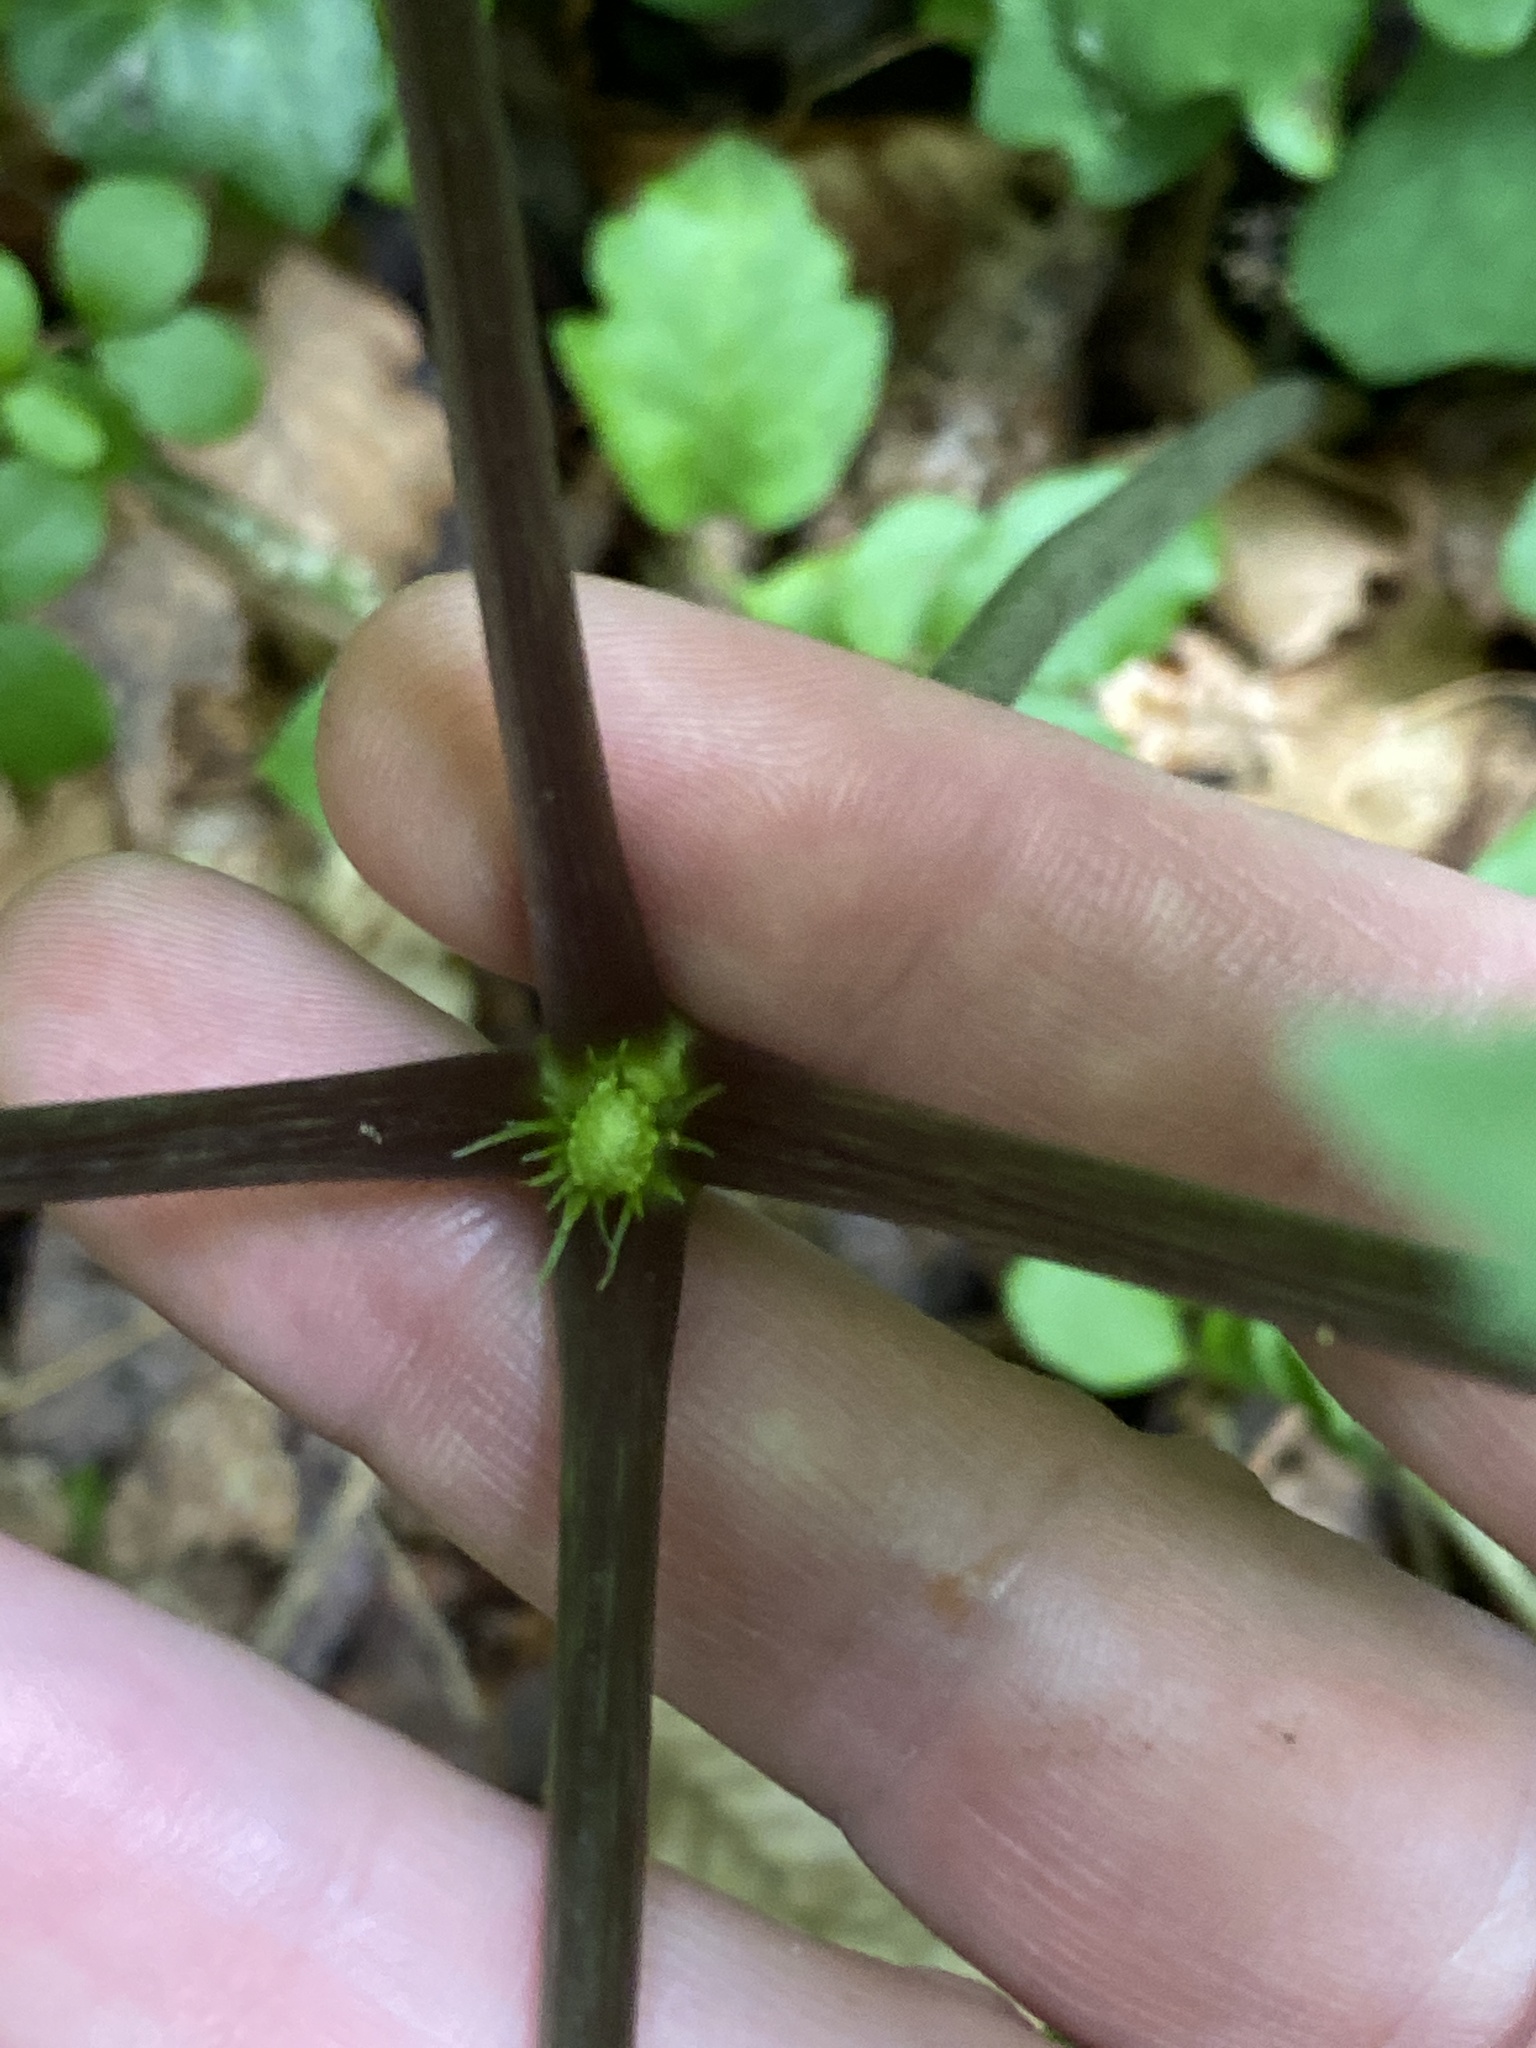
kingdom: Plantae
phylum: Tracheophyta
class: Magnoliopsida
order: Apiales
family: Araliaceae
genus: Panax
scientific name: Panax quinquefolius
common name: American ginseng
